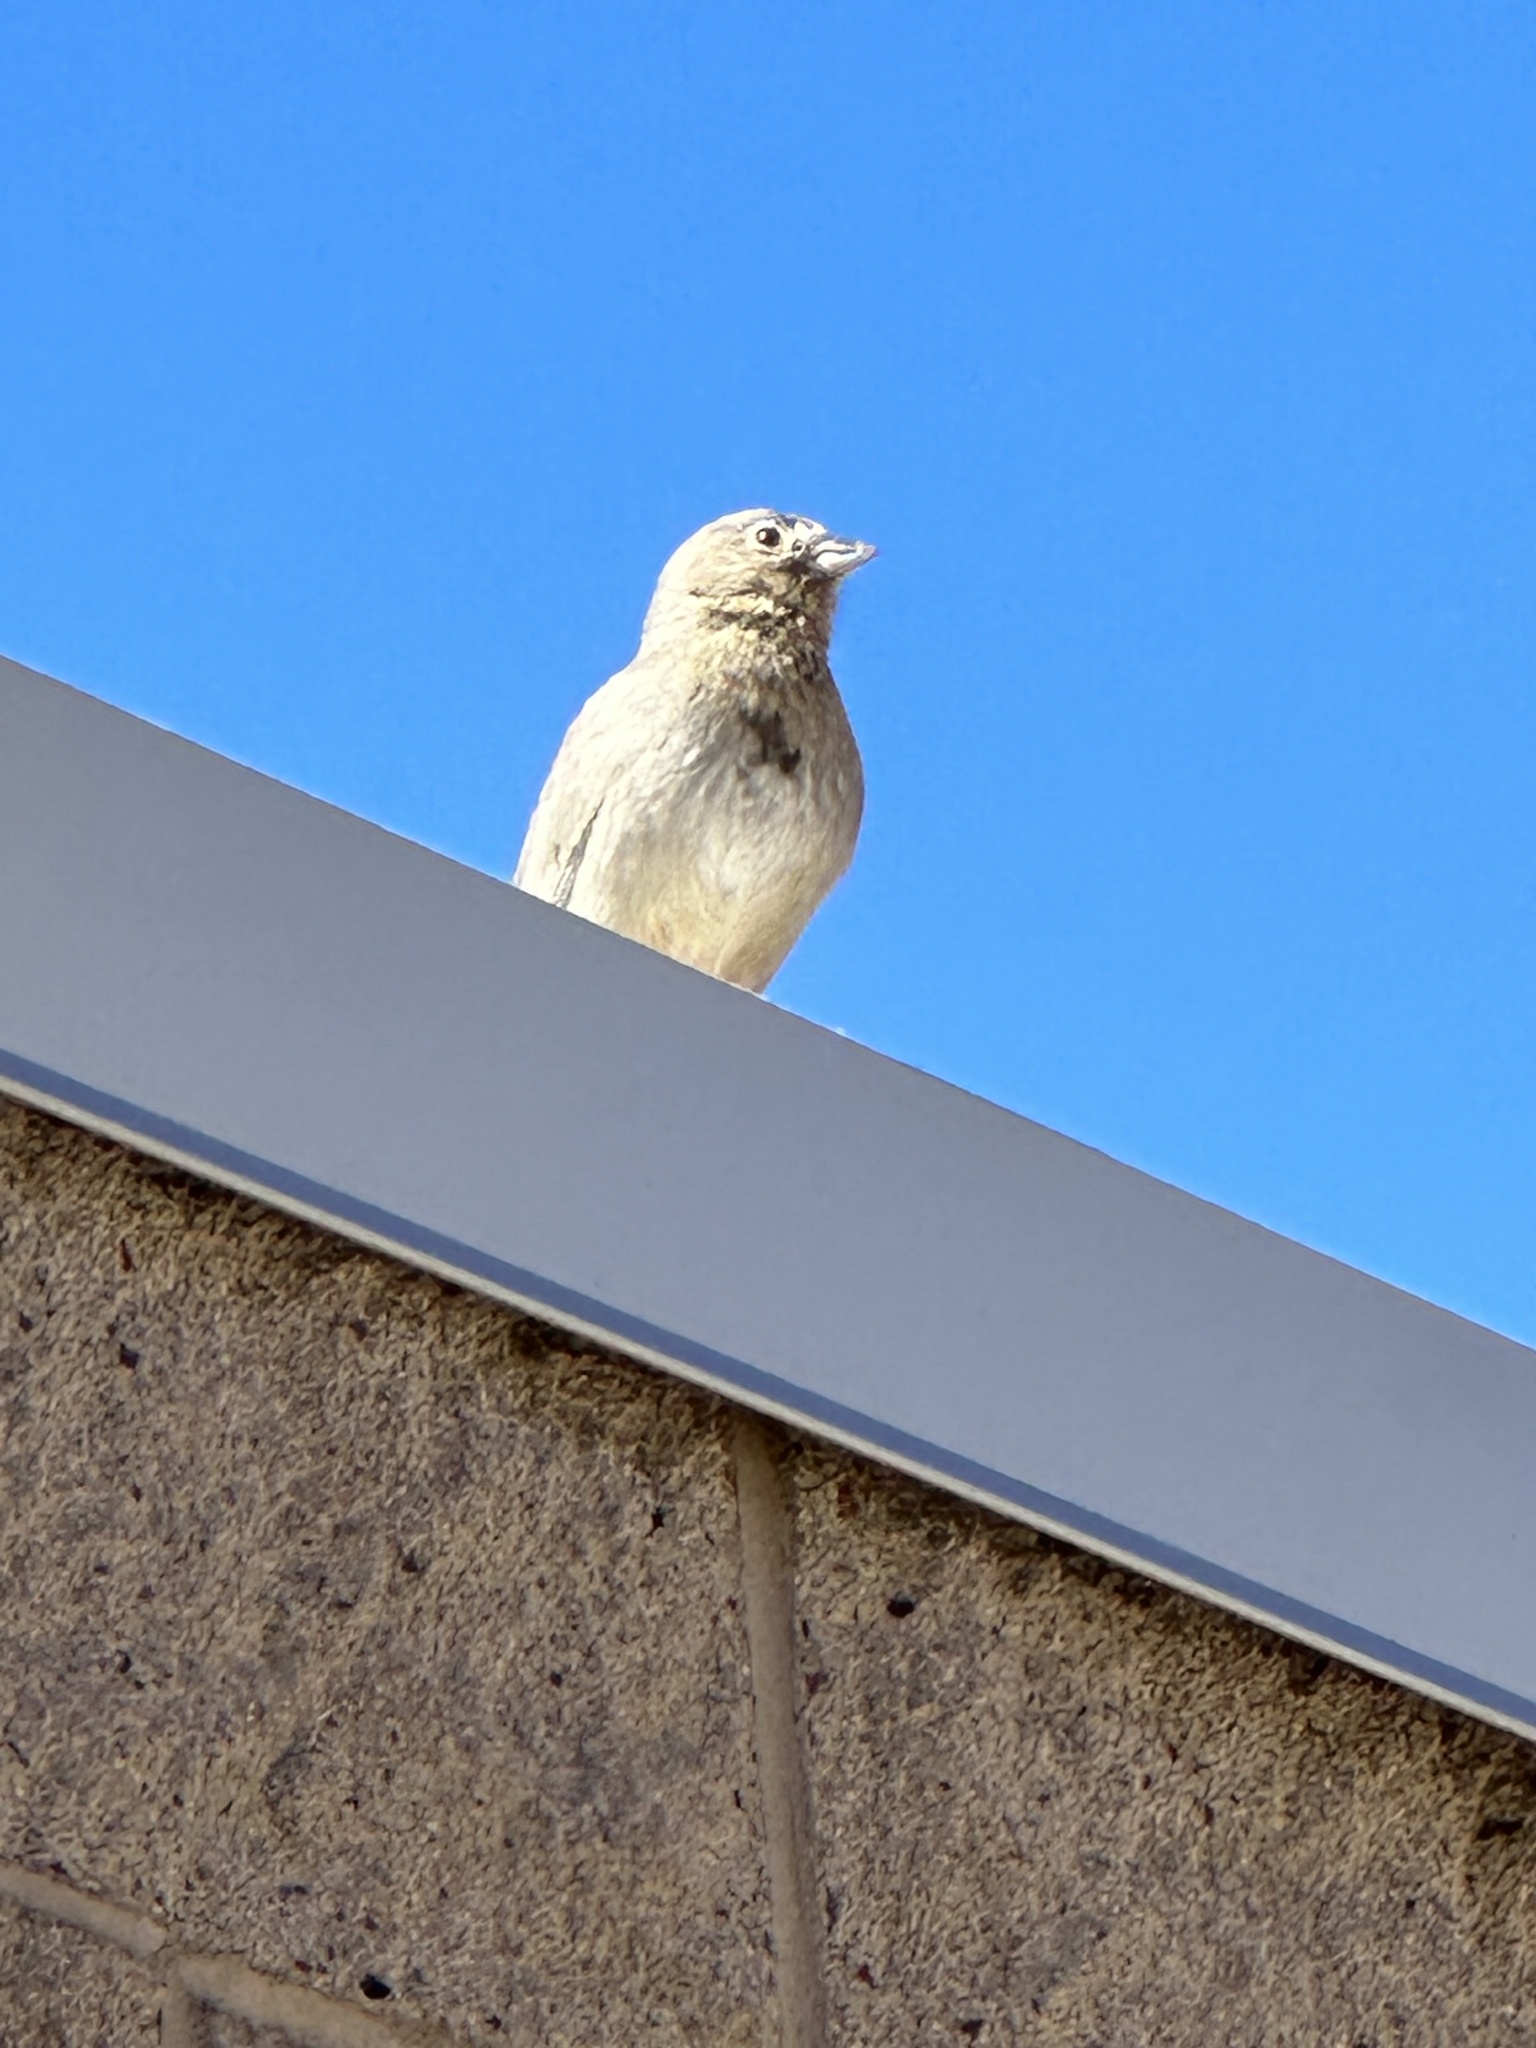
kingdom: Animalia
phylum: Chordata
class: Aves
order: Passeriformes
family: Passerellidae
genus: Melozone
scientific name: Melozone fusca
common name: Canyon towhee
